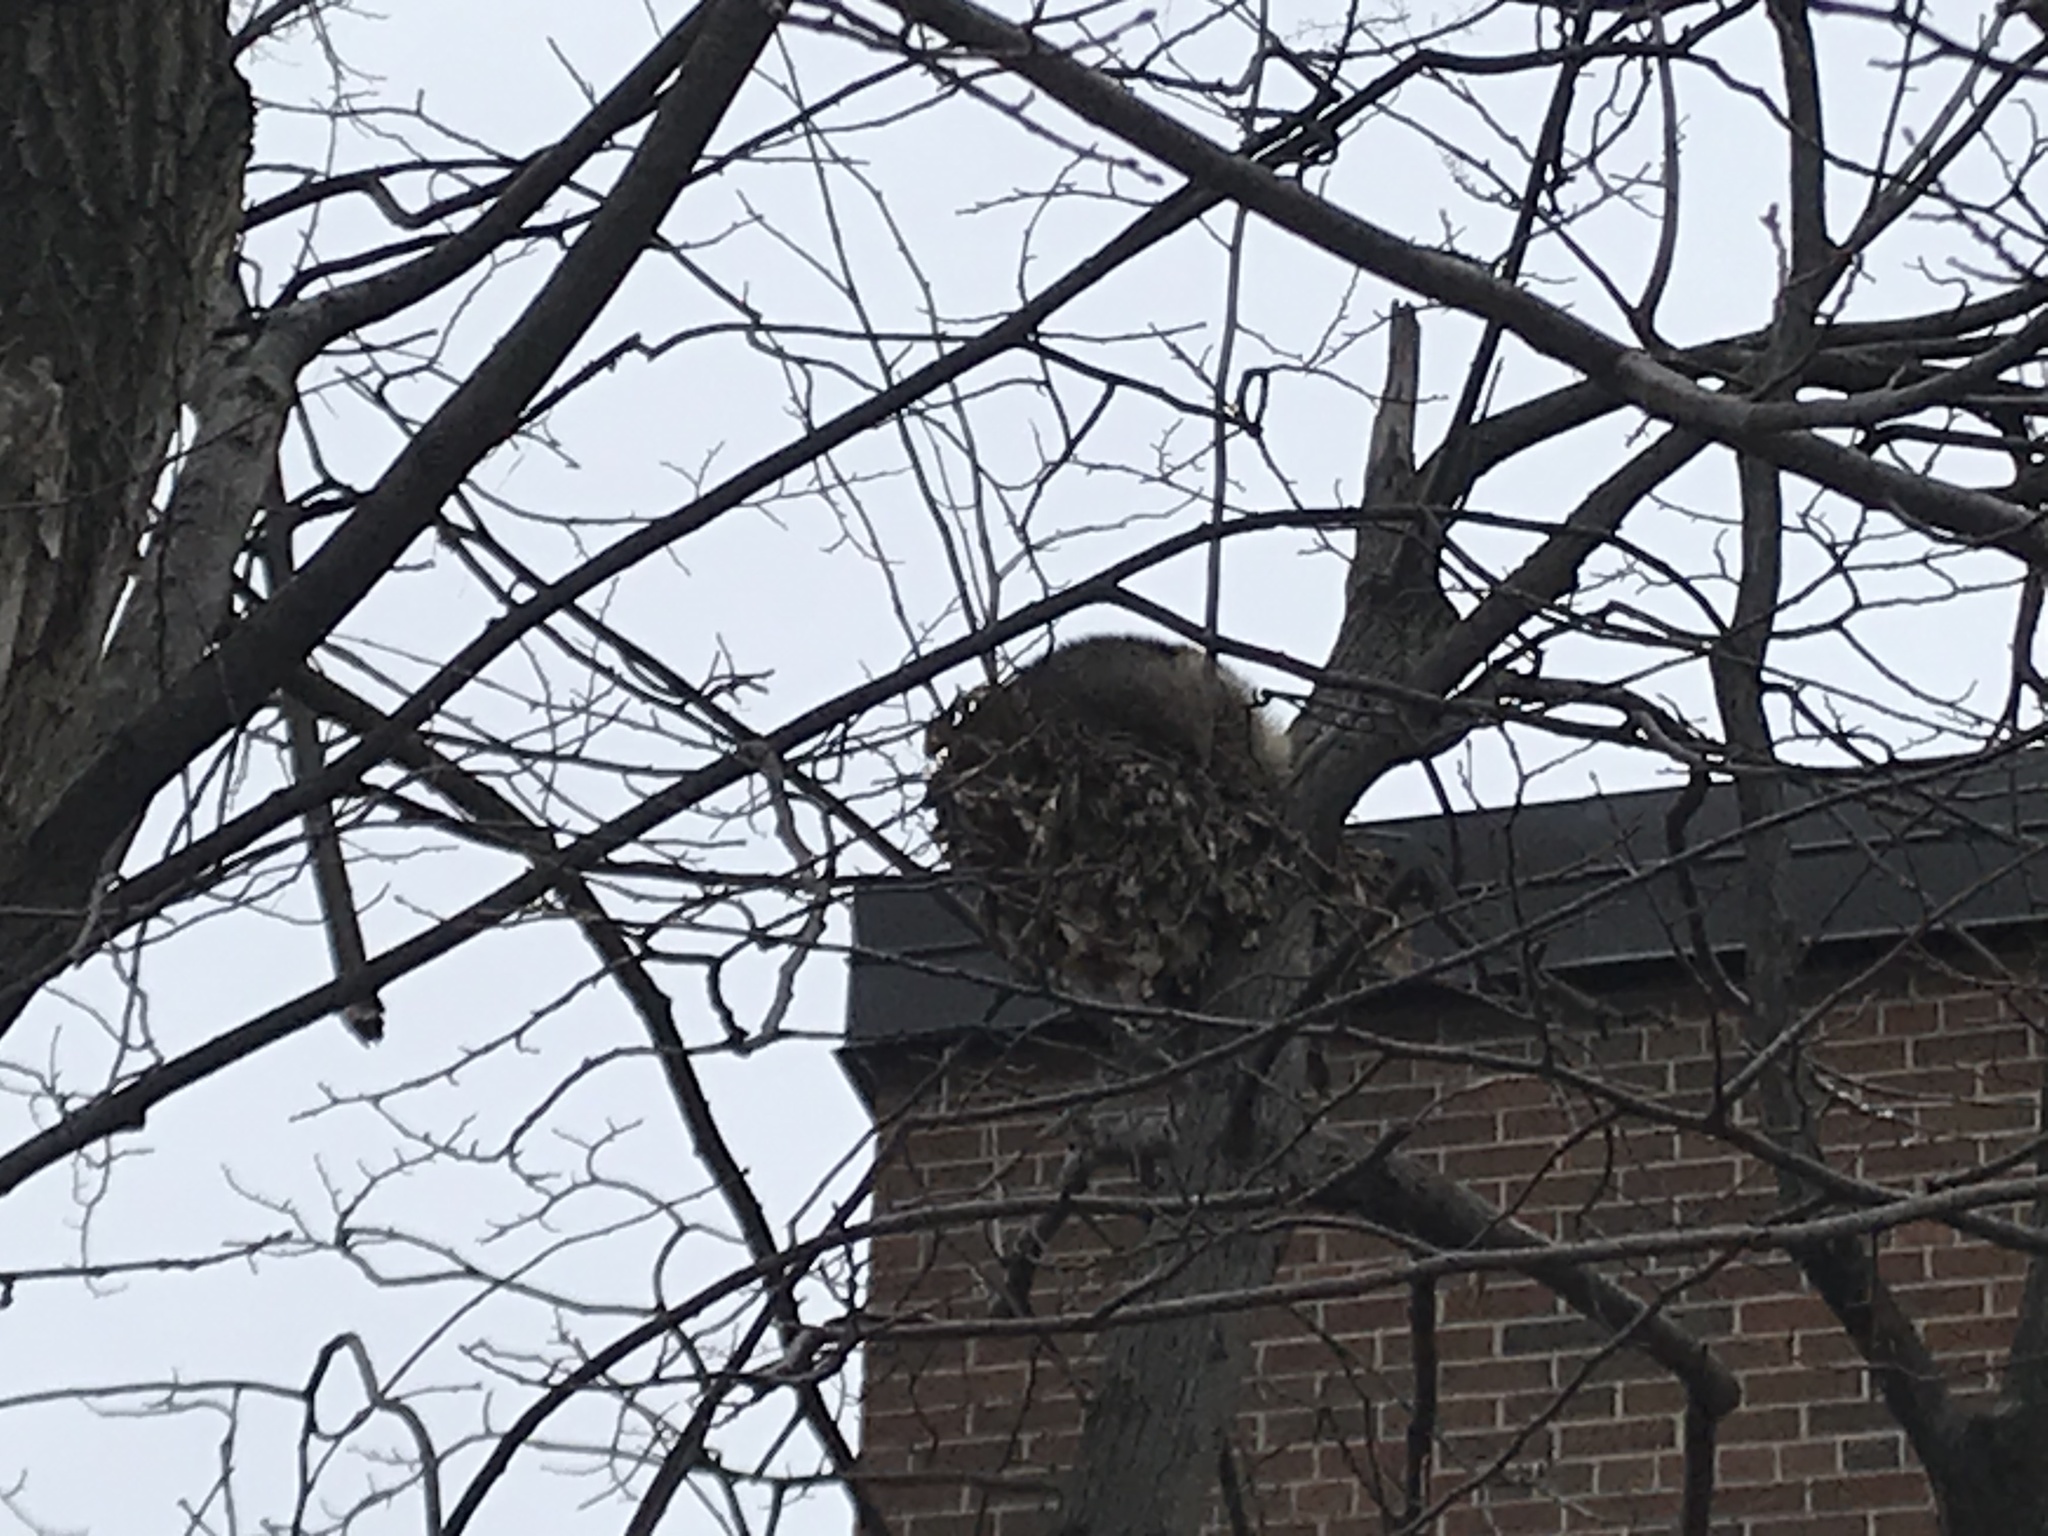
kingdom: Animalia
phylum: Chordata
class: Mammalia
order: Didelphimorphia
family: Didelphidae
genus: Didelphis
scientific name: Didelphis virginiana
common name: Virginia opossum
